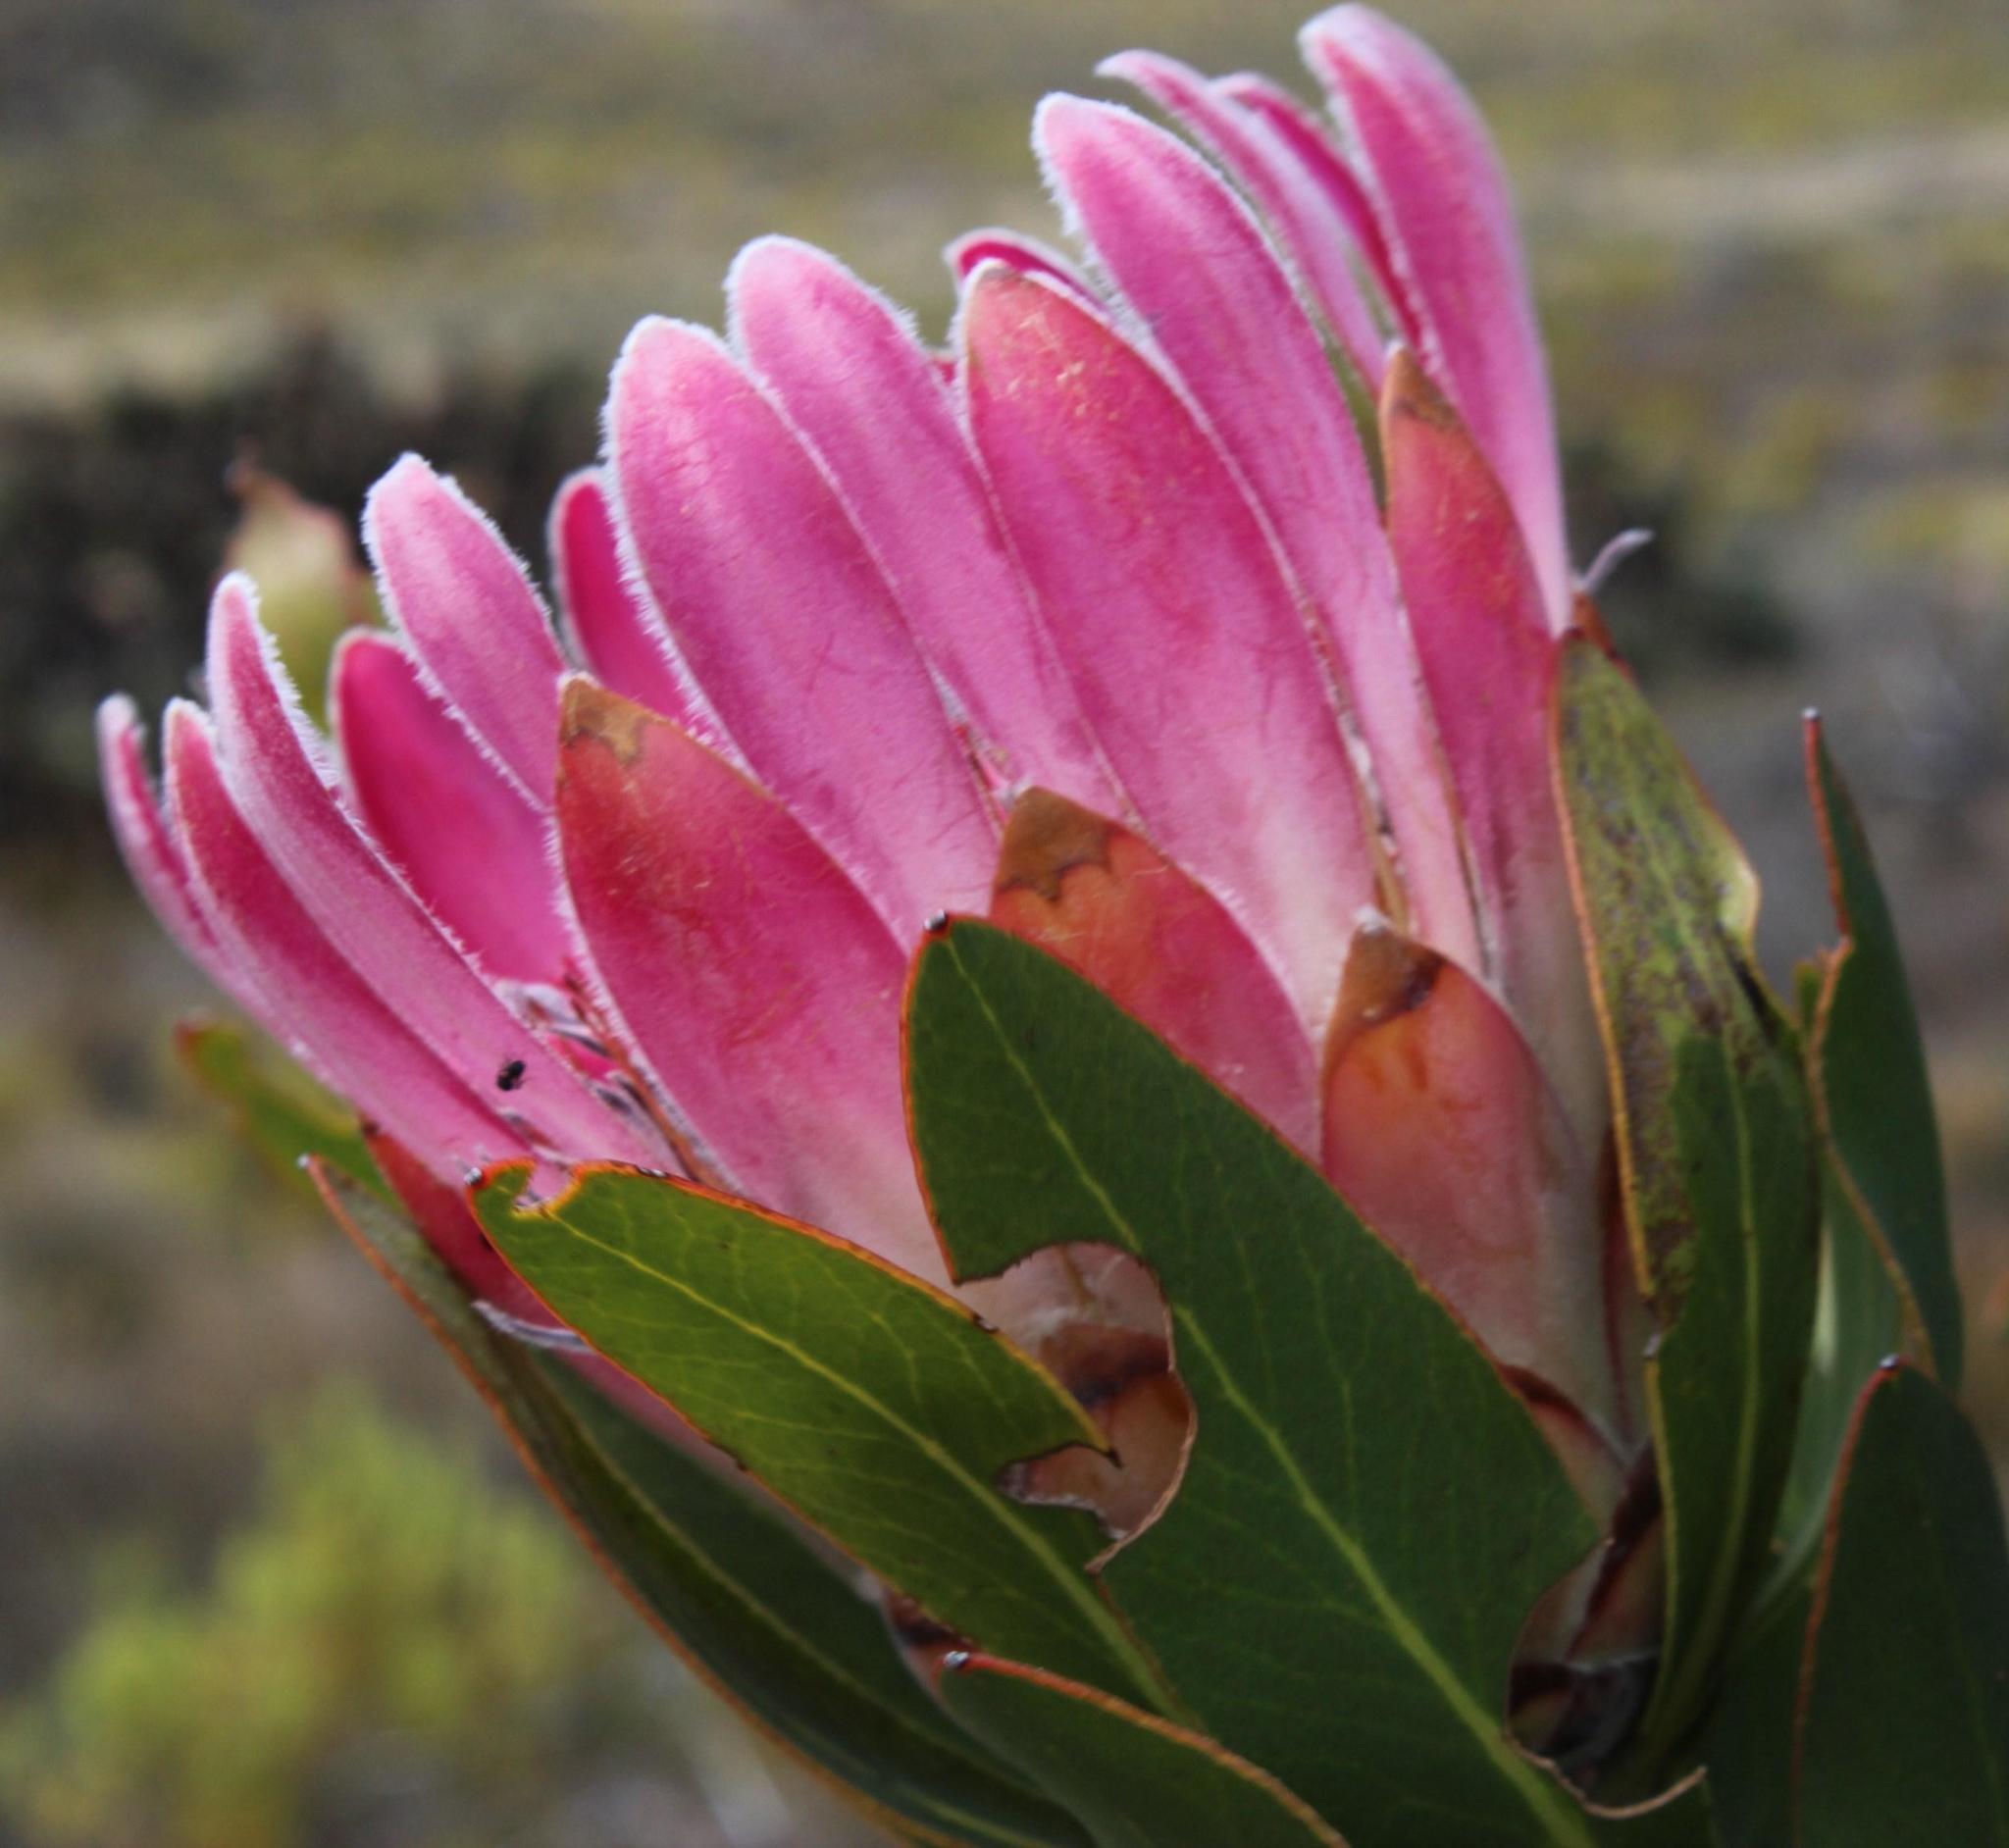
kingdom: Plantae
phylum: Tracheophyta
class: Magnoliopsida
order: Proteales
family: Proteaceae
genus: Protea
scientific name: Protea compacta
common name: Bot river protea
